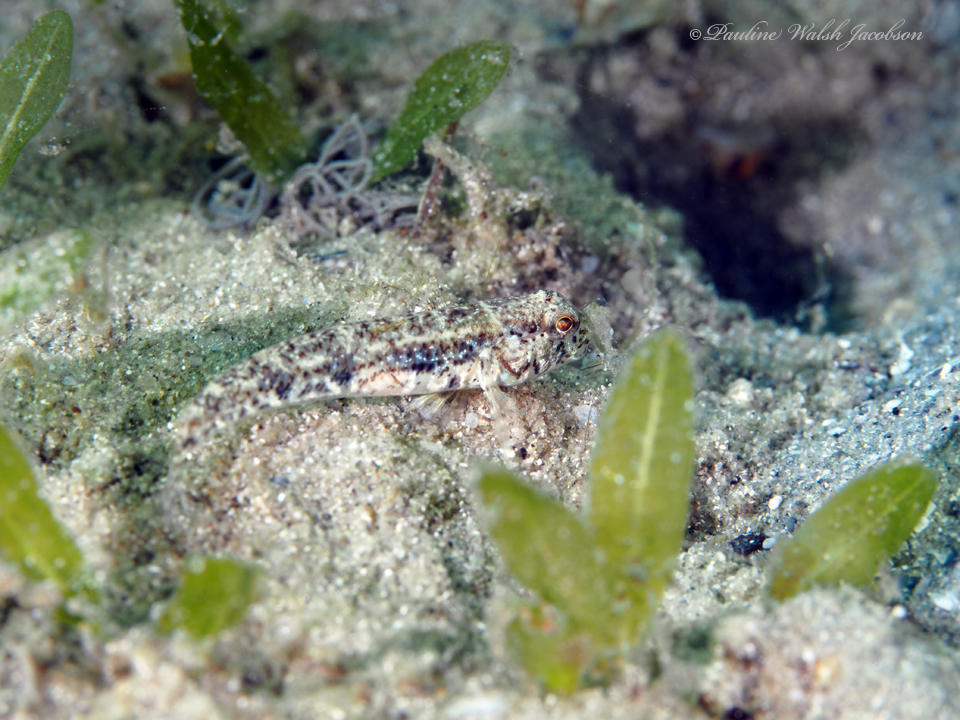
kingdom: Animalia
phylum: Chordata
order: Perciformes
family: Gobiidae
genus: Ctenogobius
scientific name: Ctenogobius stigmaturus
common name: Spottail goby
